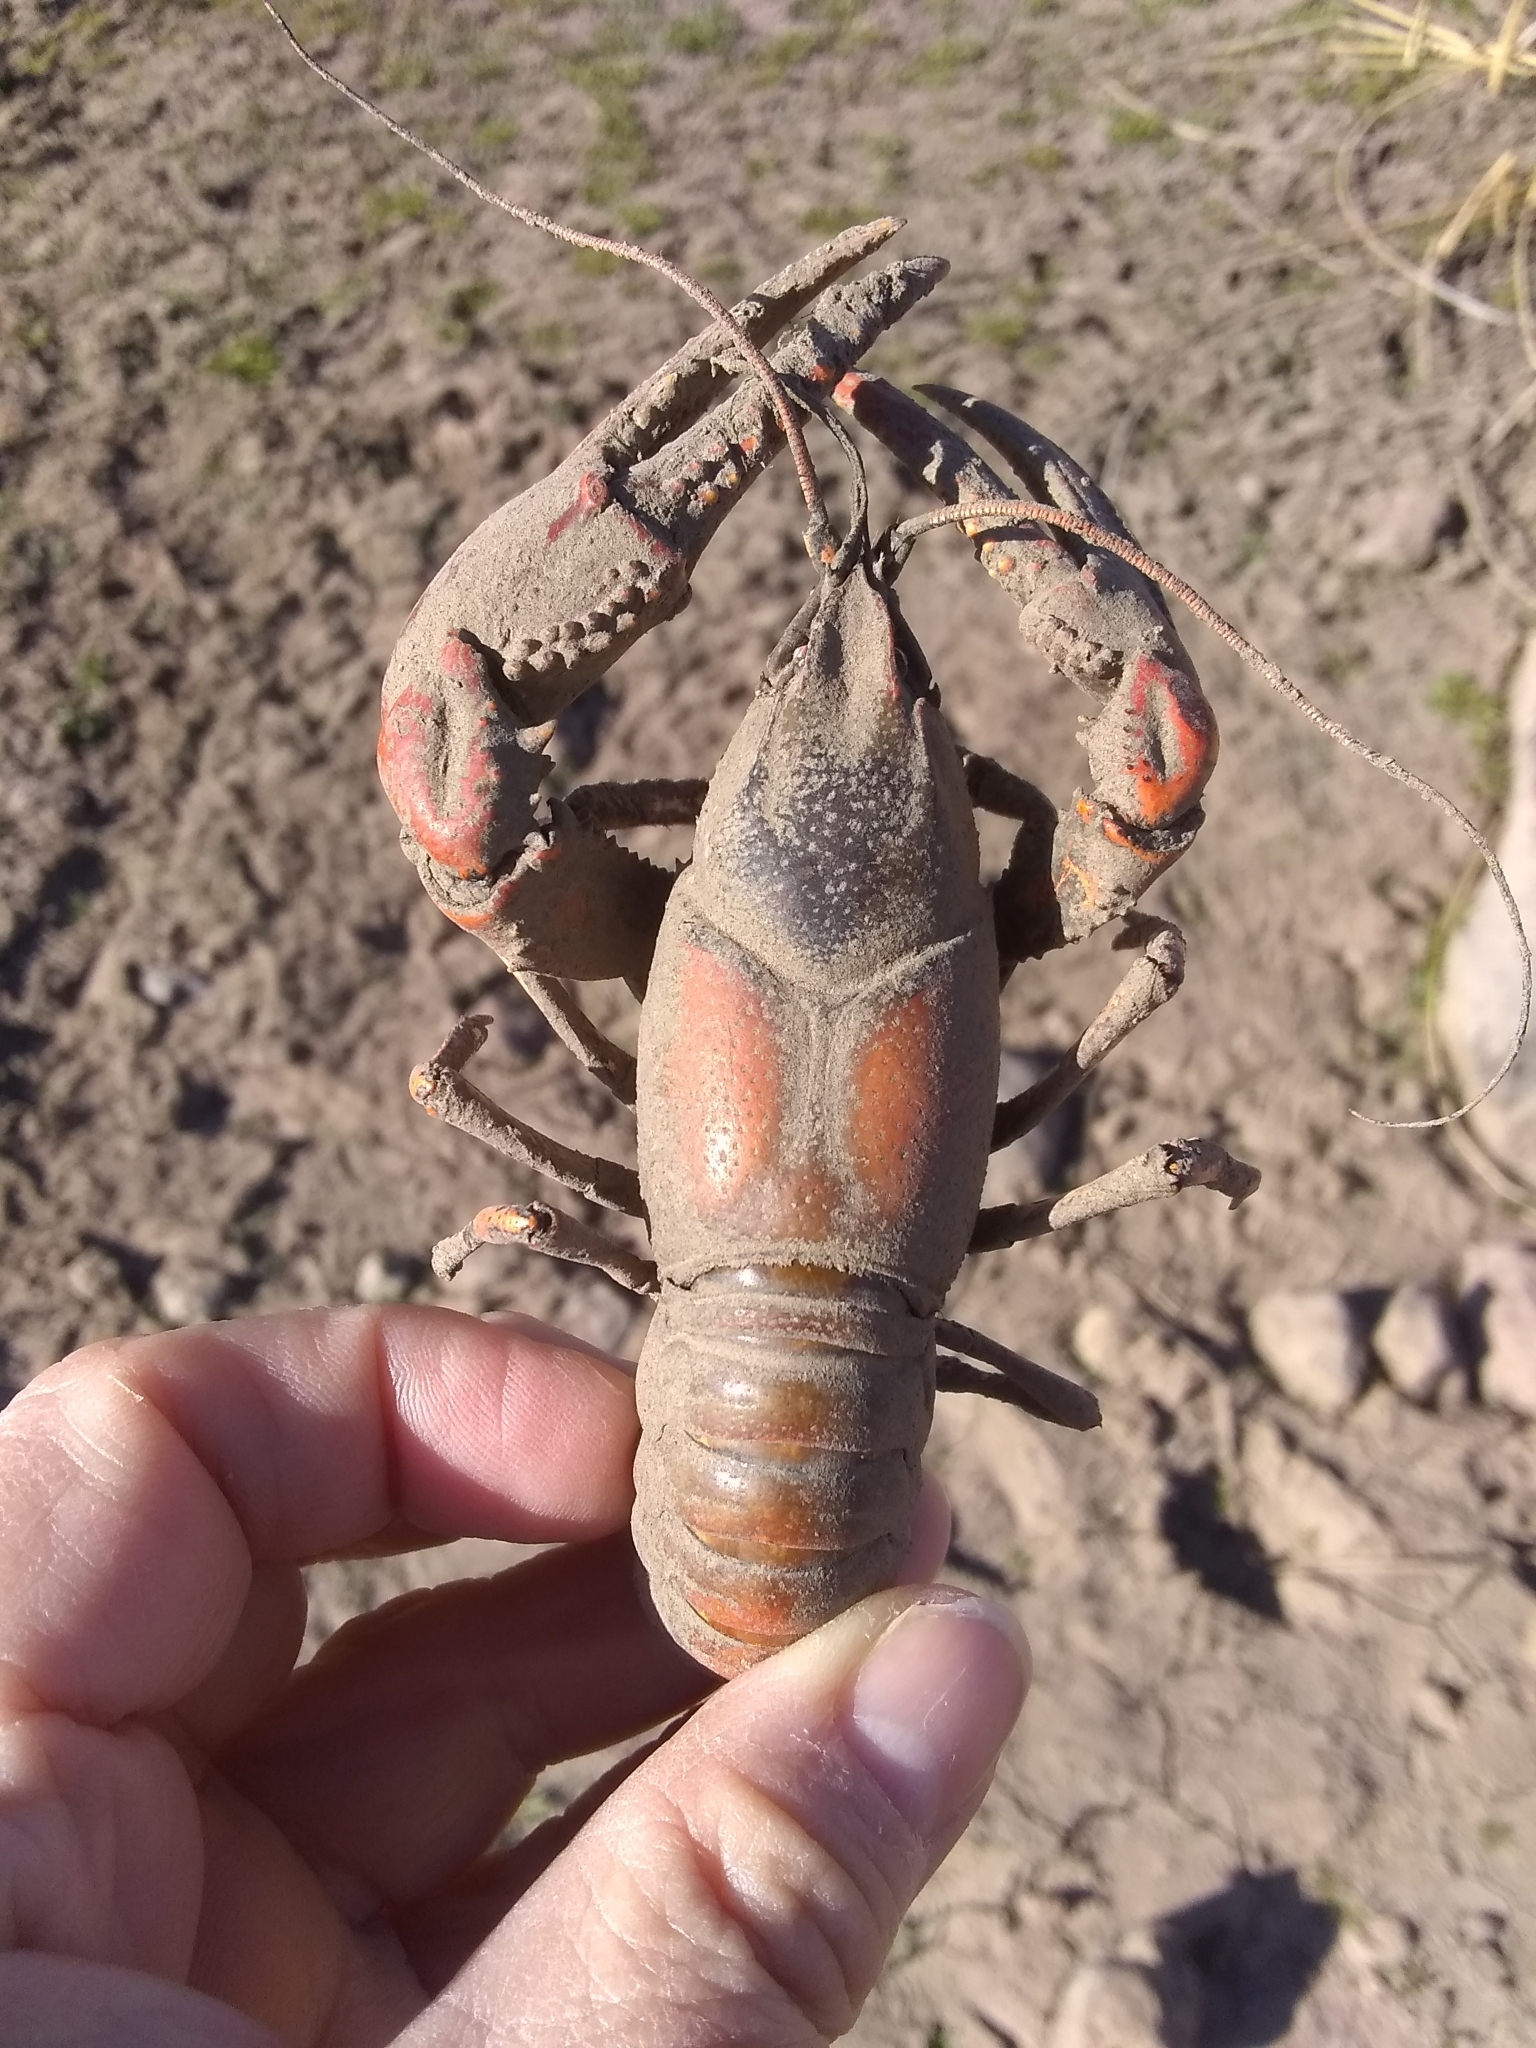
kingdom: Animalia
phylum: Arthropoda
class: Malacostraca
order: Decapoda
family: Cambaridae
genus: Faxonius
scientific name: Faxonius virilis
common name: Virile crayfish
